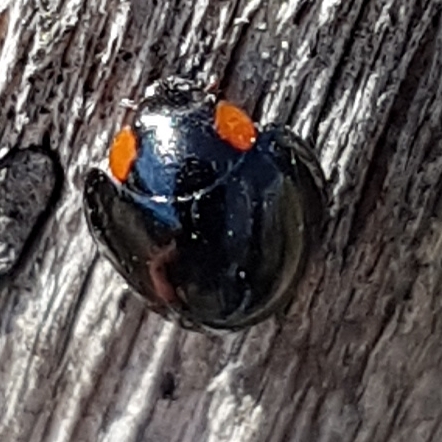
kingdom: Animalia
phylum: Arthropoda
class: Insecta
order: Coleoptera
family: Coccinellidae
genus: Parexochomus
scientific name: Parexochomus nigromaculatus
